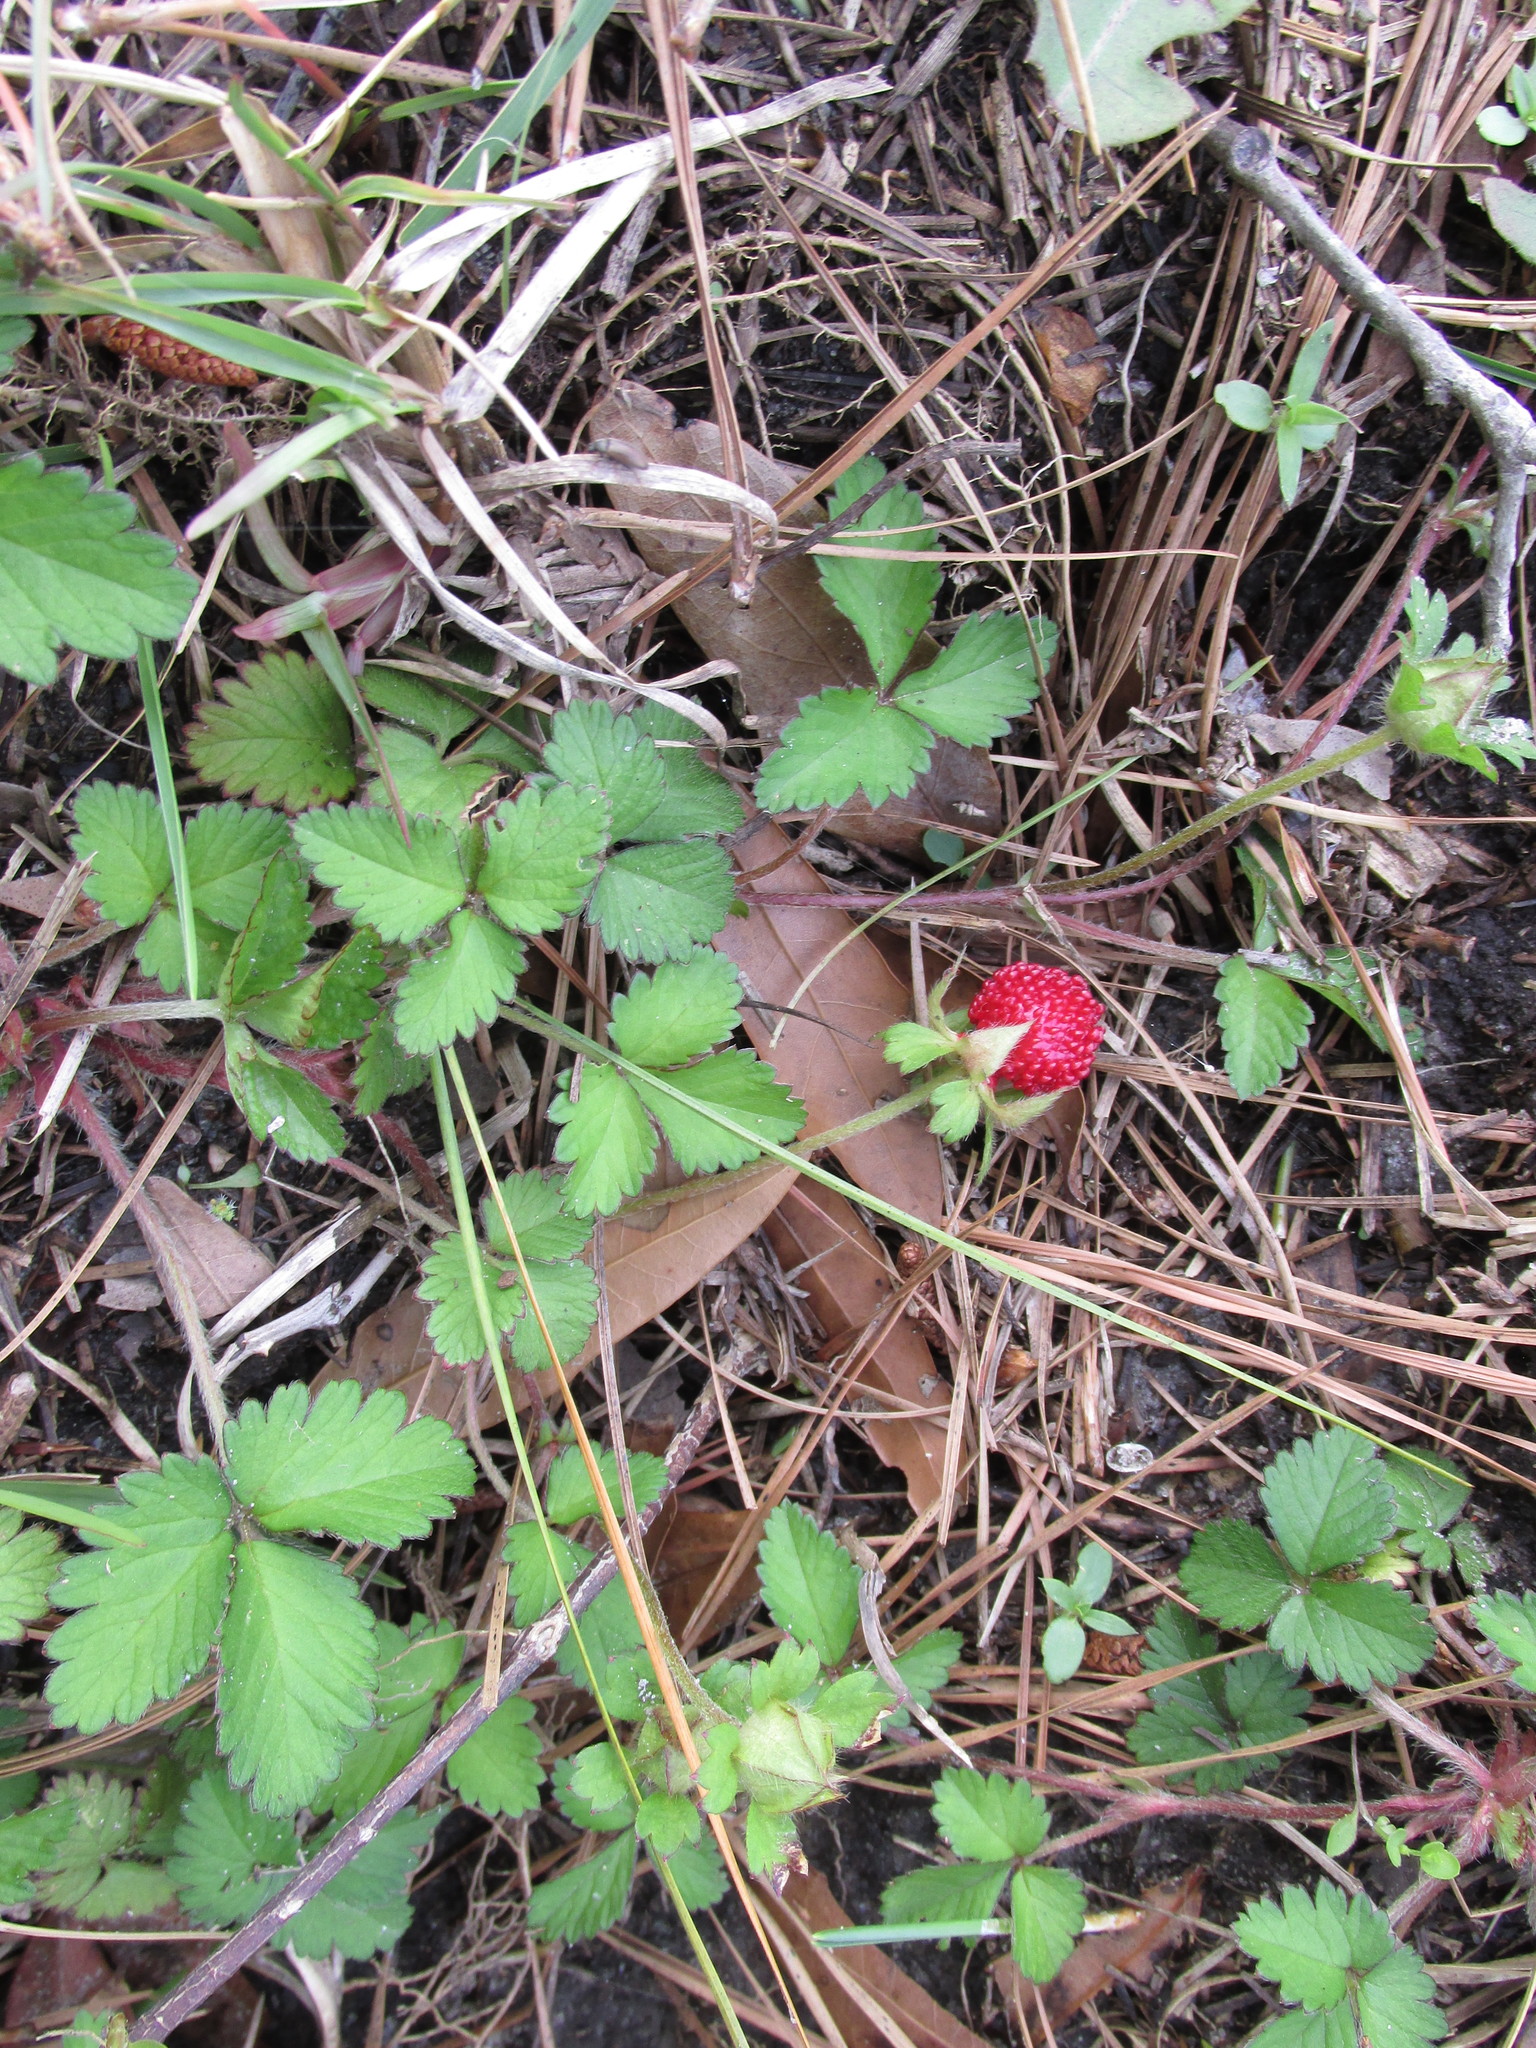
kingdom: Plantae
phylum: Tracheophyta
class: Magnoliopsida
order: Rosales
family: Rosaceae
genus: Potentilla
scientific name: Potentilla indica
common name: Yellow-flowered strawberry
